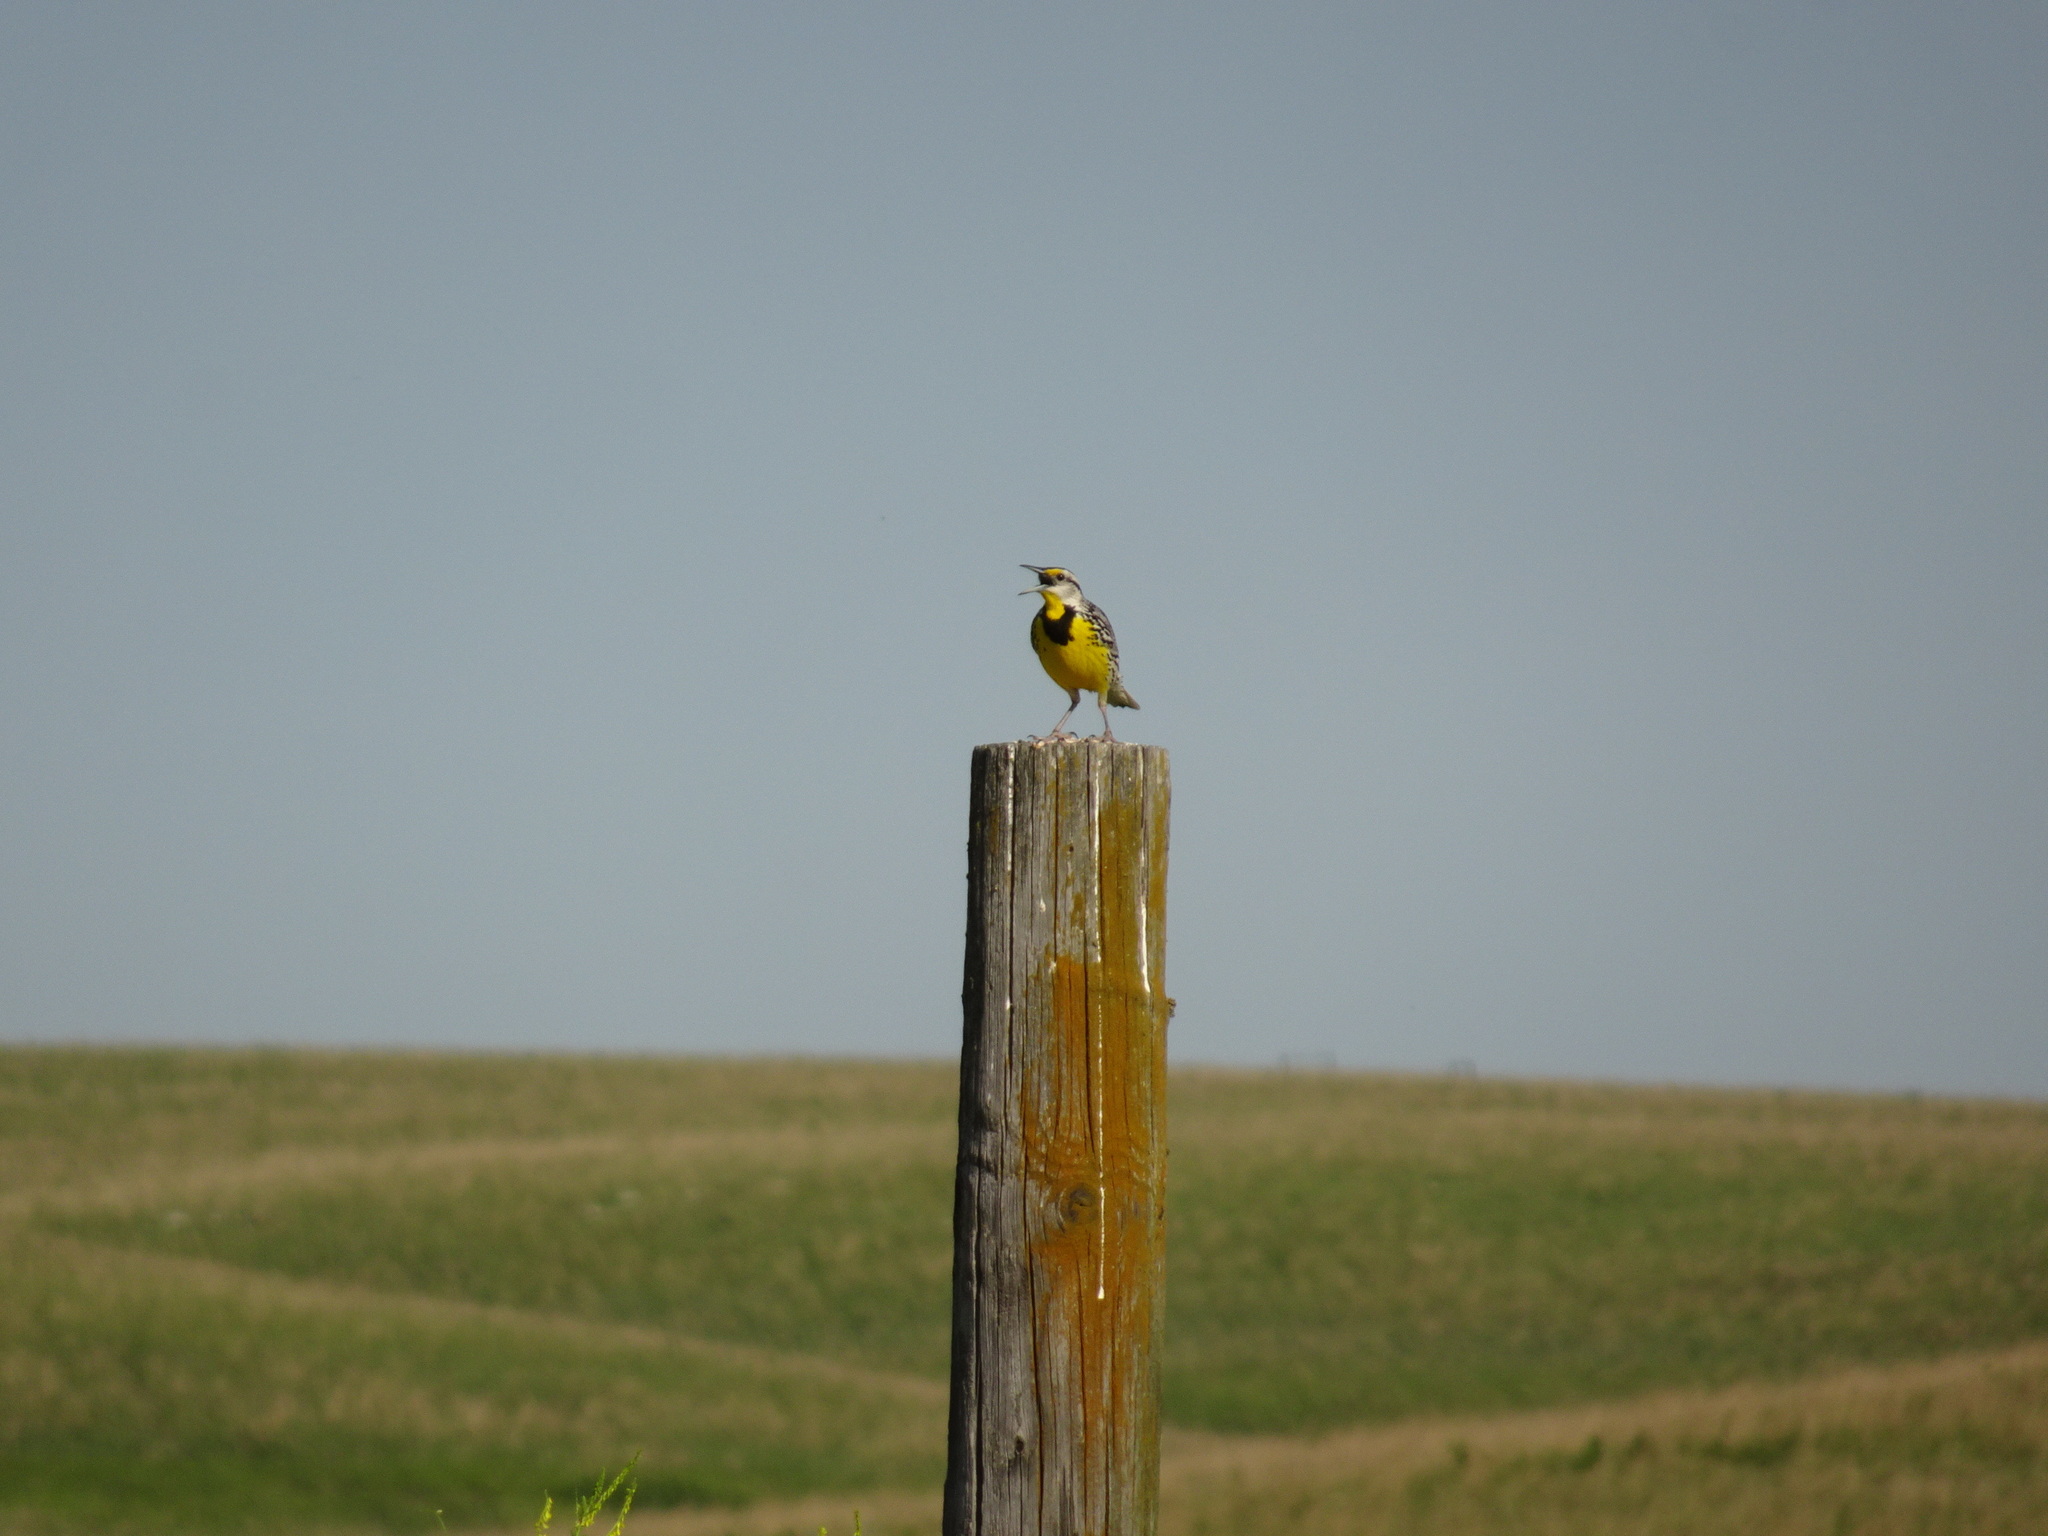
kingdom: Animalia
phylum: Chordata
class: Aves
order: Passeriformes
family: Icteridae
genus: Sturnella
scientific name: Sturnella magna
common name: Eastern meadowlark
